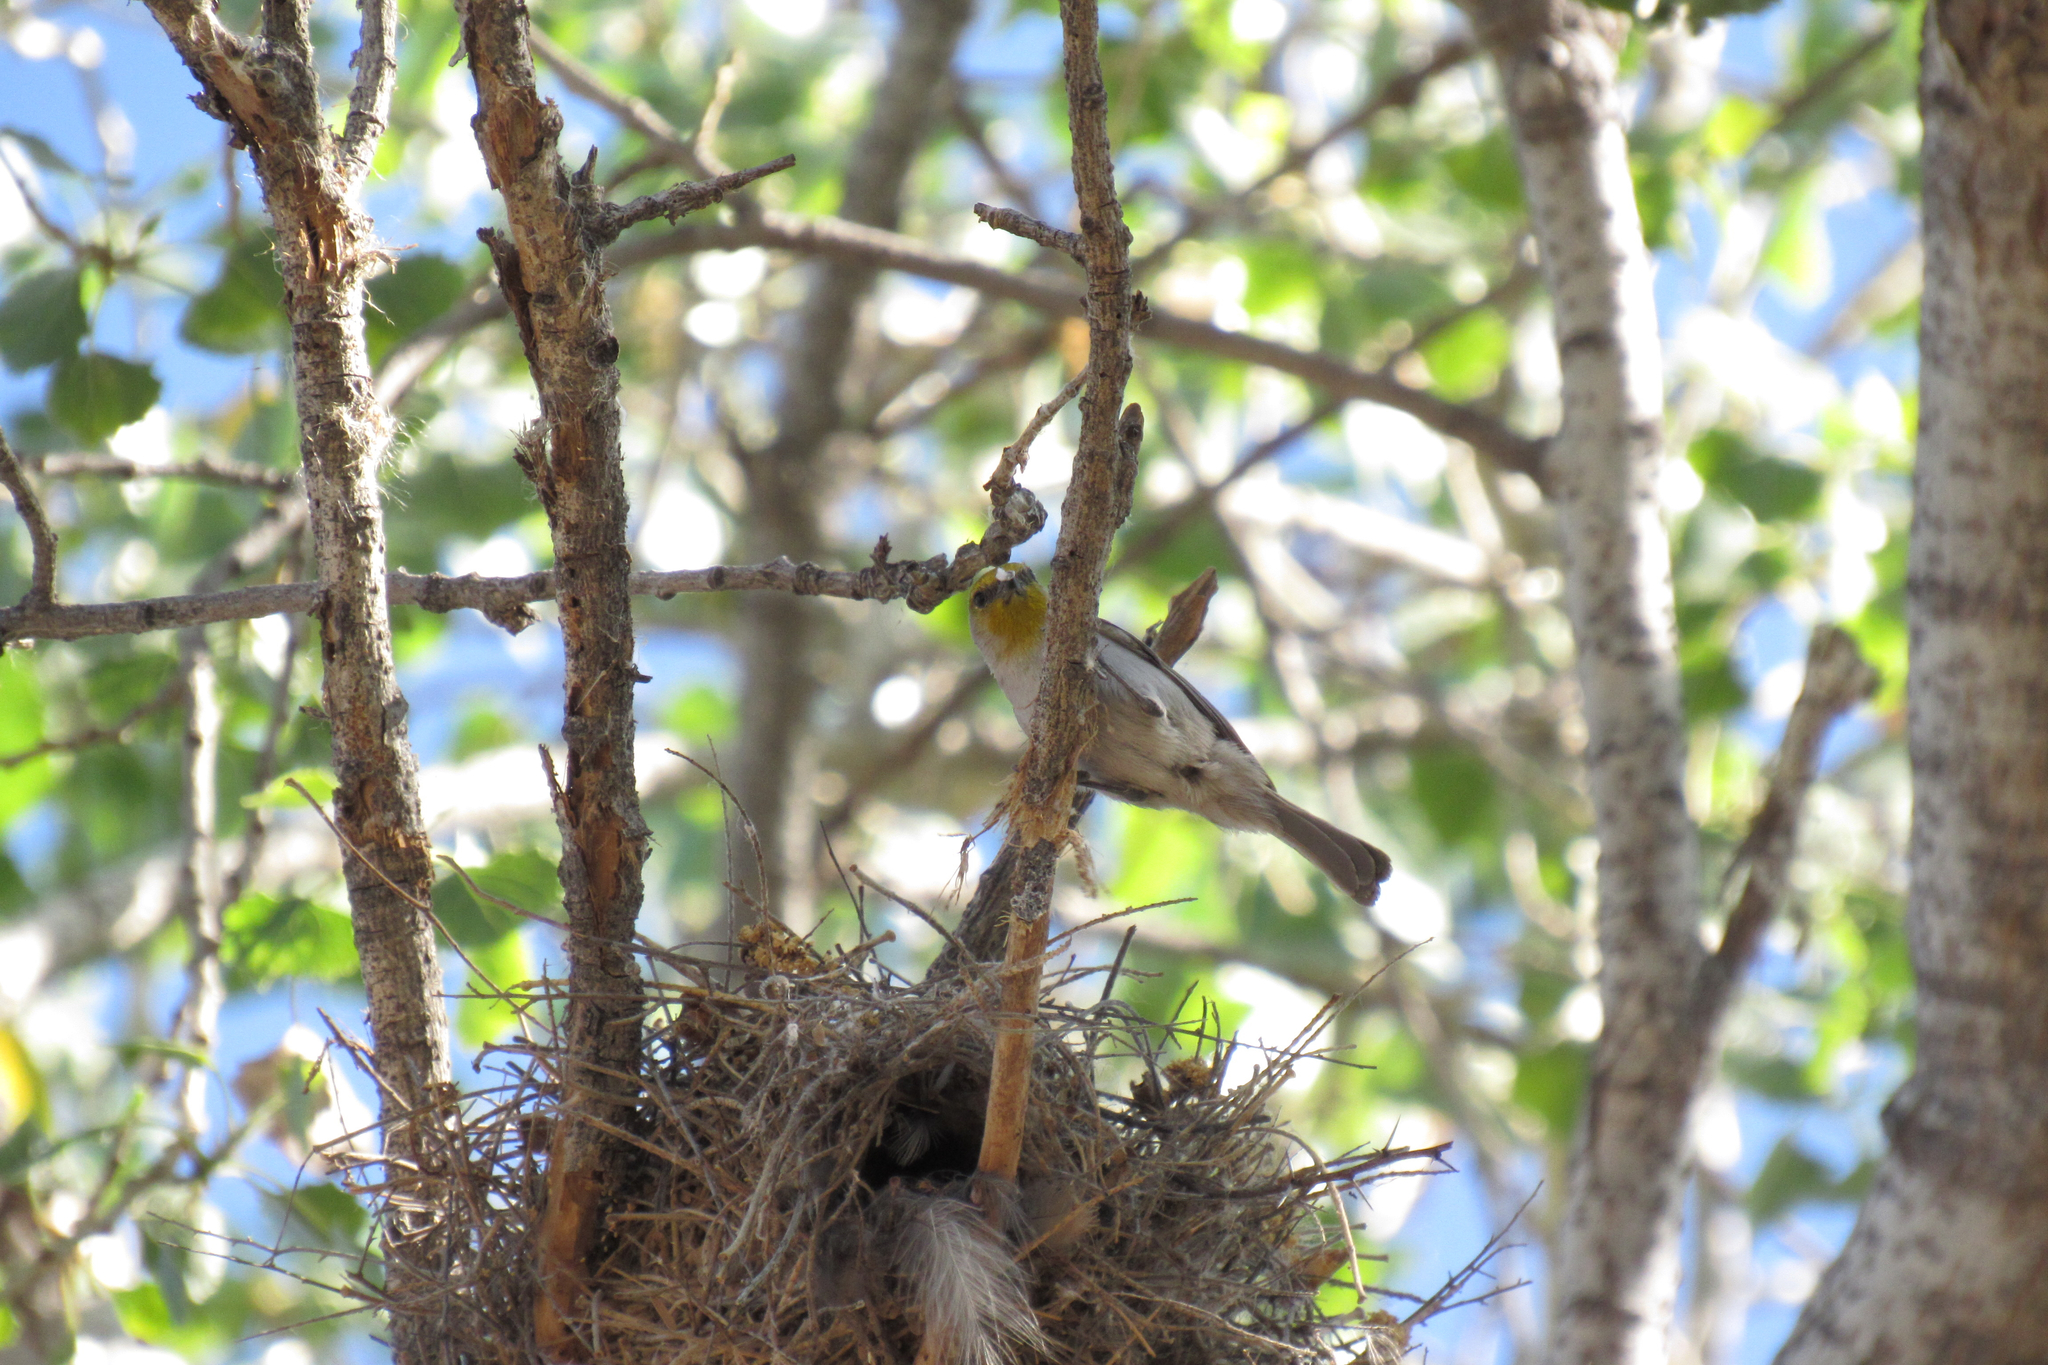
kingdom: Animalia
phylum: Chordata
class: Aves
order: Passeriformes
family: Remizidae
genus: Auriparus
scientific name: Auriparus flaviceps
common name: Verdin
